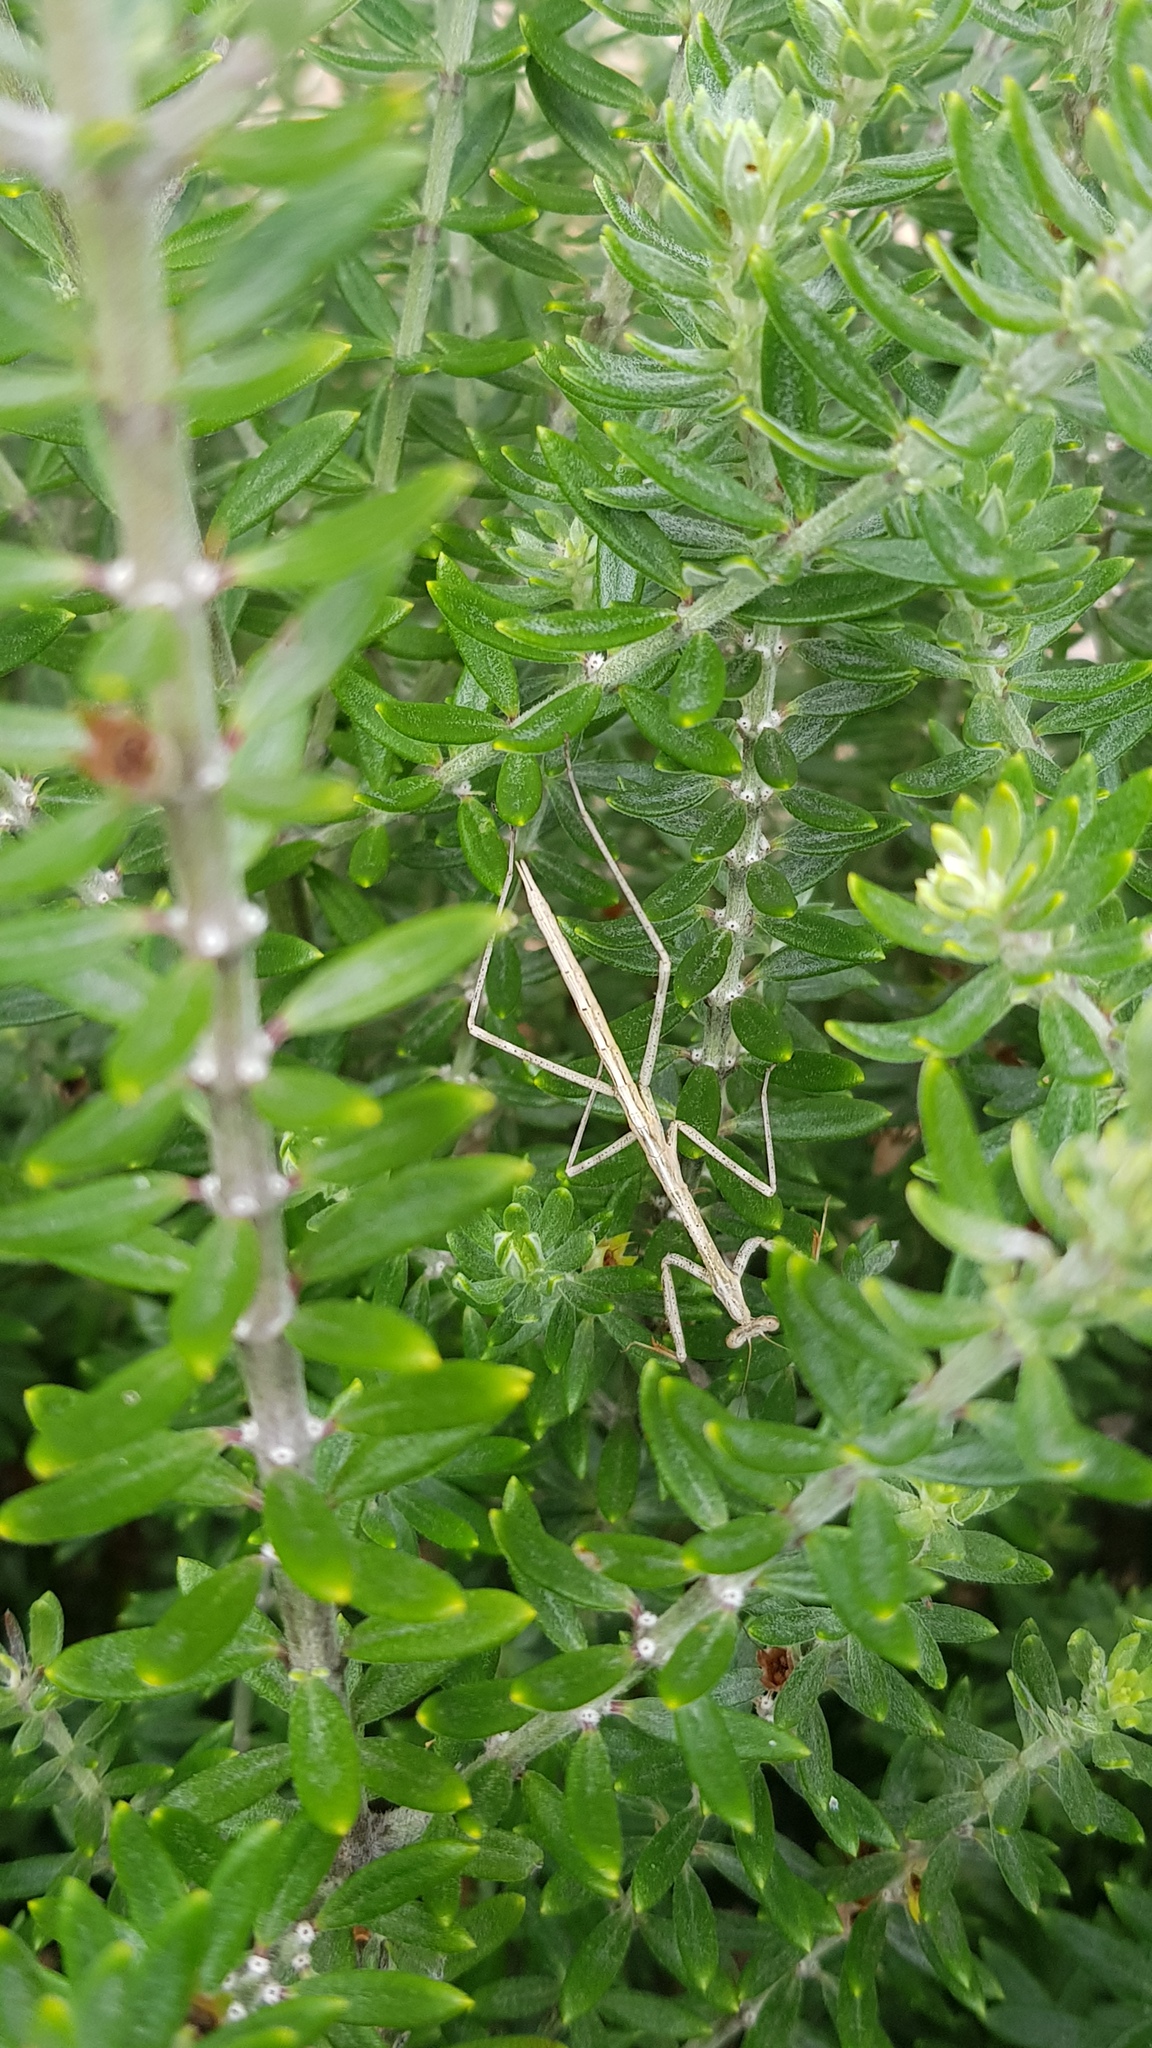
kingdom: Animalia
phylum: Arthropoda
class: Insecta
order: Mantodea
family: Mantidae
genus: Archimantis
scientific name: Archimantis latistyla
